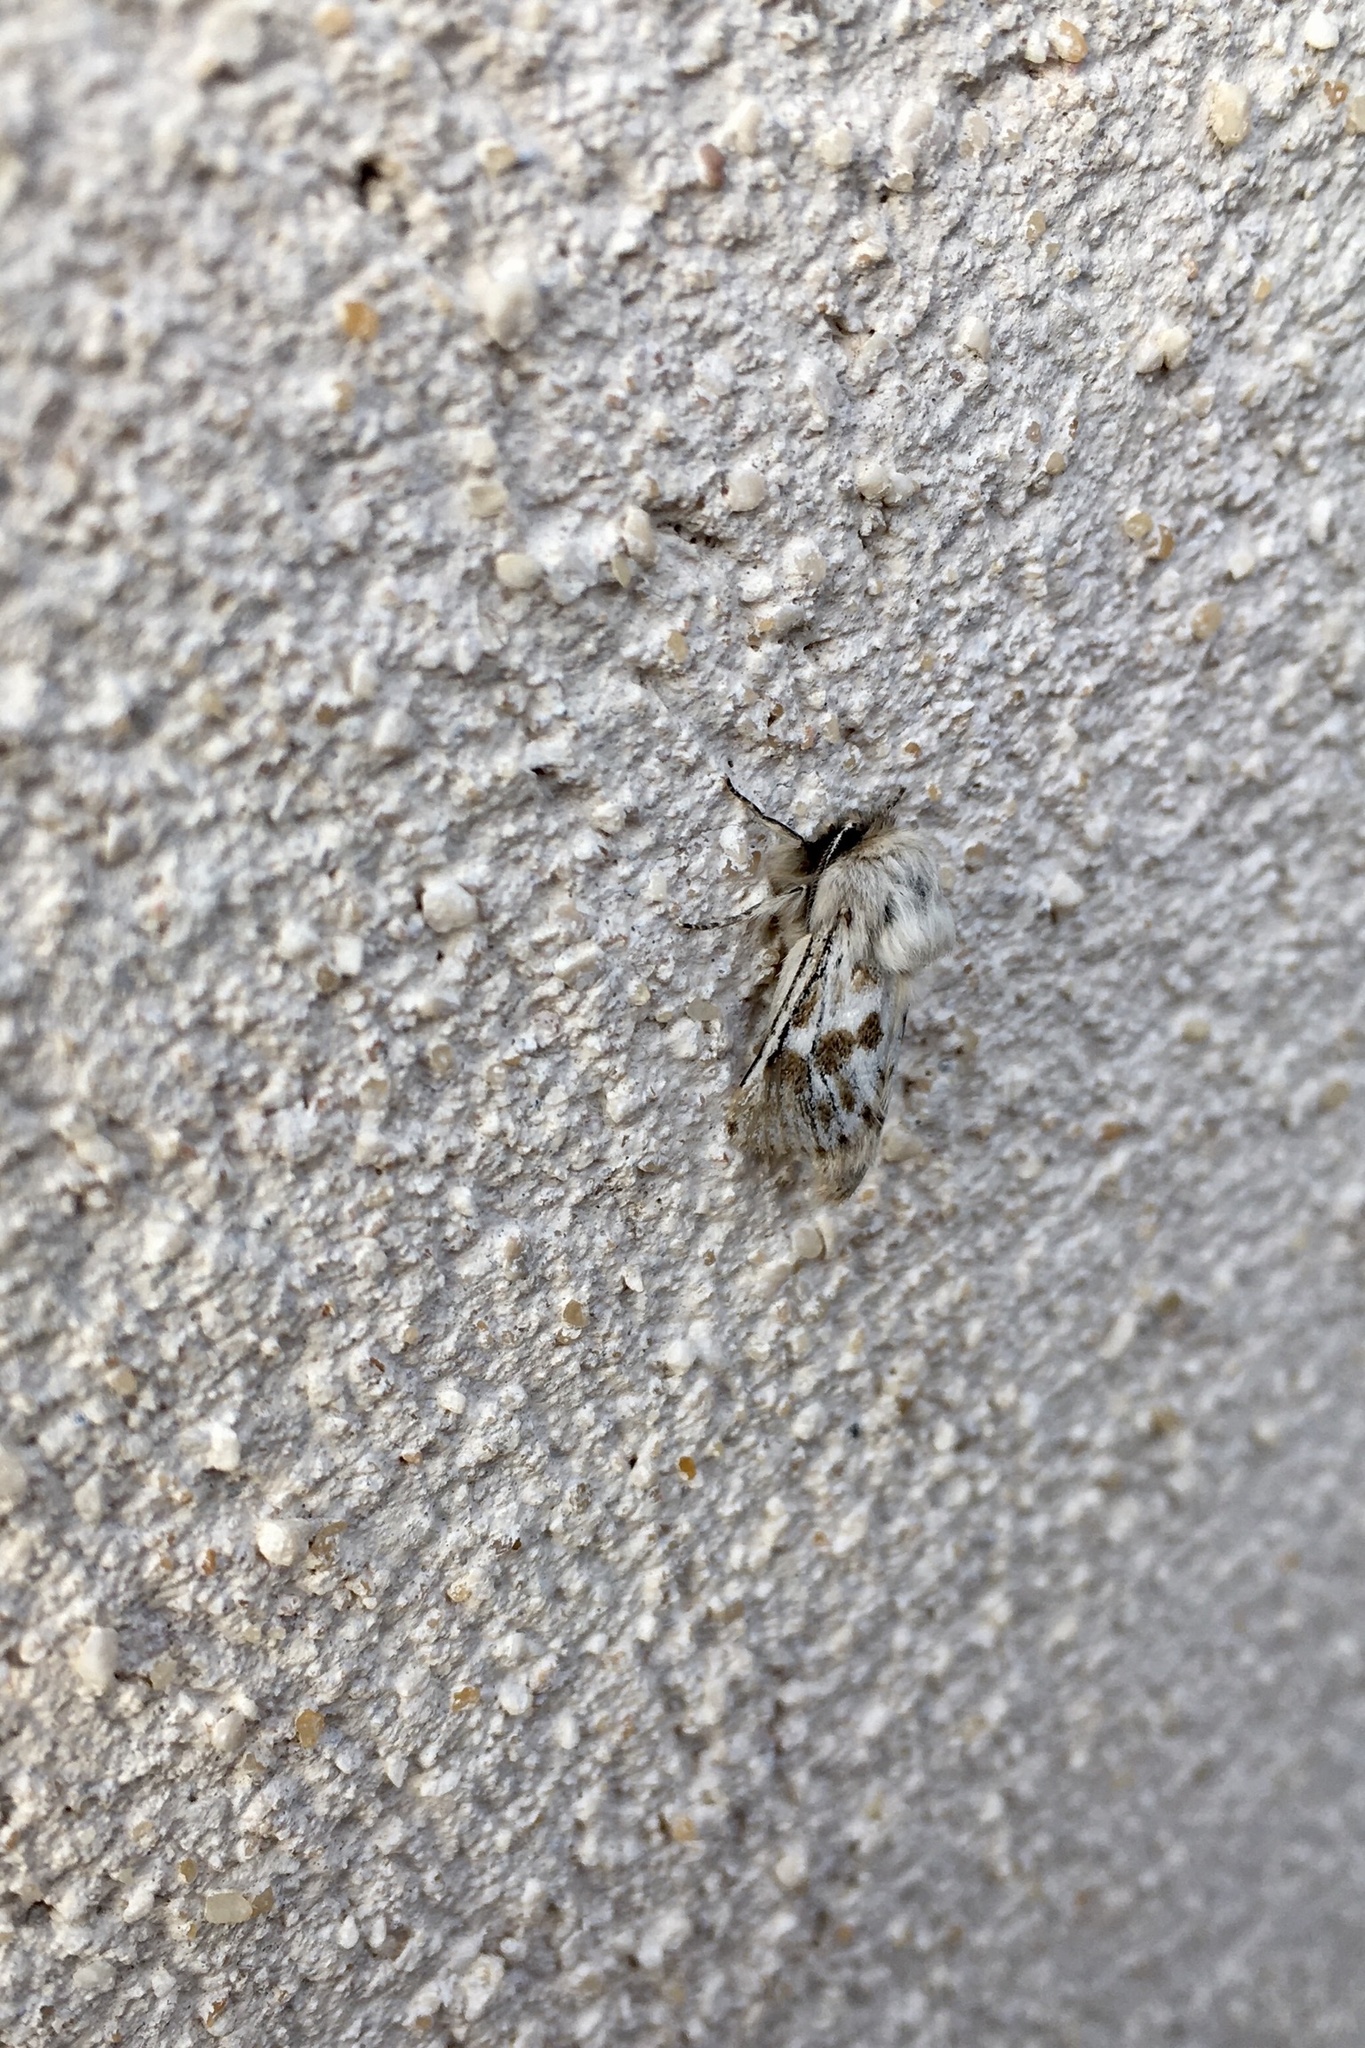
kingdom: Animalia
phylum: Arthropoda
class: Insecta
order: Lepidoptera
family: Cossidae
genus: Dyspessa
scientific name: Dyspessa ulula
